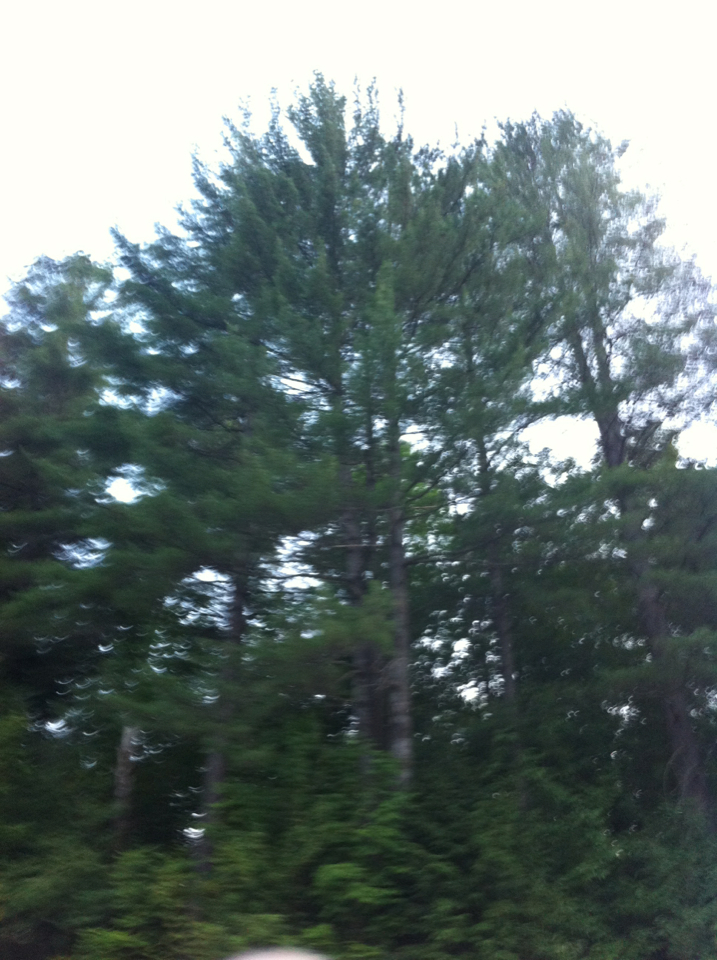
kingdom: Plantae
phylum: Tracheophyta
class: Pinopsida
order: Pinales
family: Pinaceae
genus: Pinus
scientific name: Pinus strobus
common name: Weymouth pine
